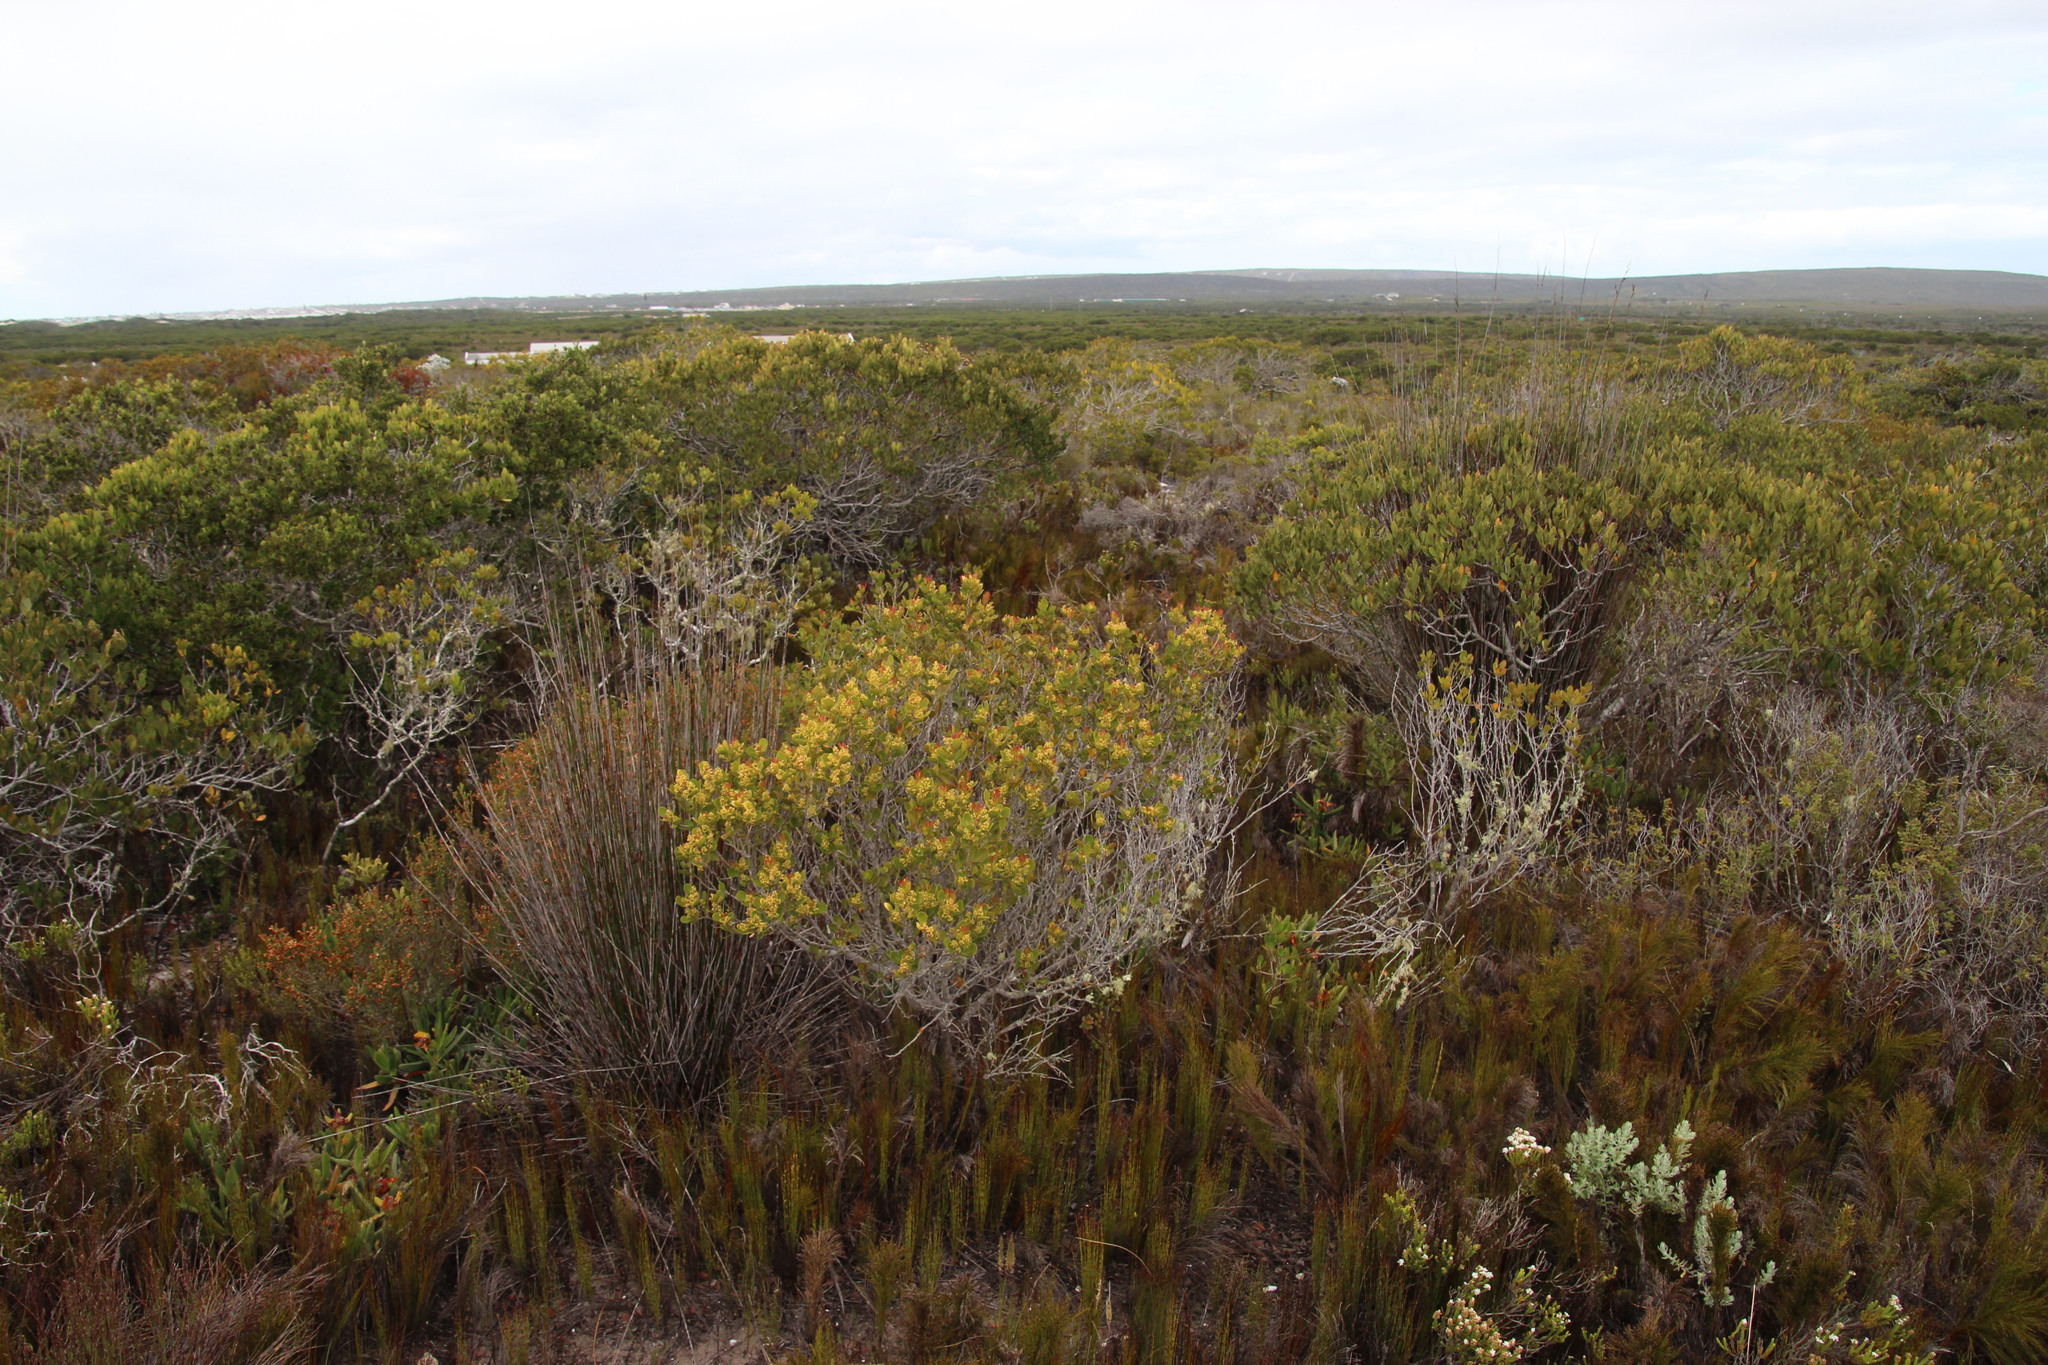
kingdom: Plantae
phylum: Tracheophyta
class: Magnoliopsida
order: Sapindales
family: Anacardiaceae
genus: Searsia
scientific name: Searsia lucida
